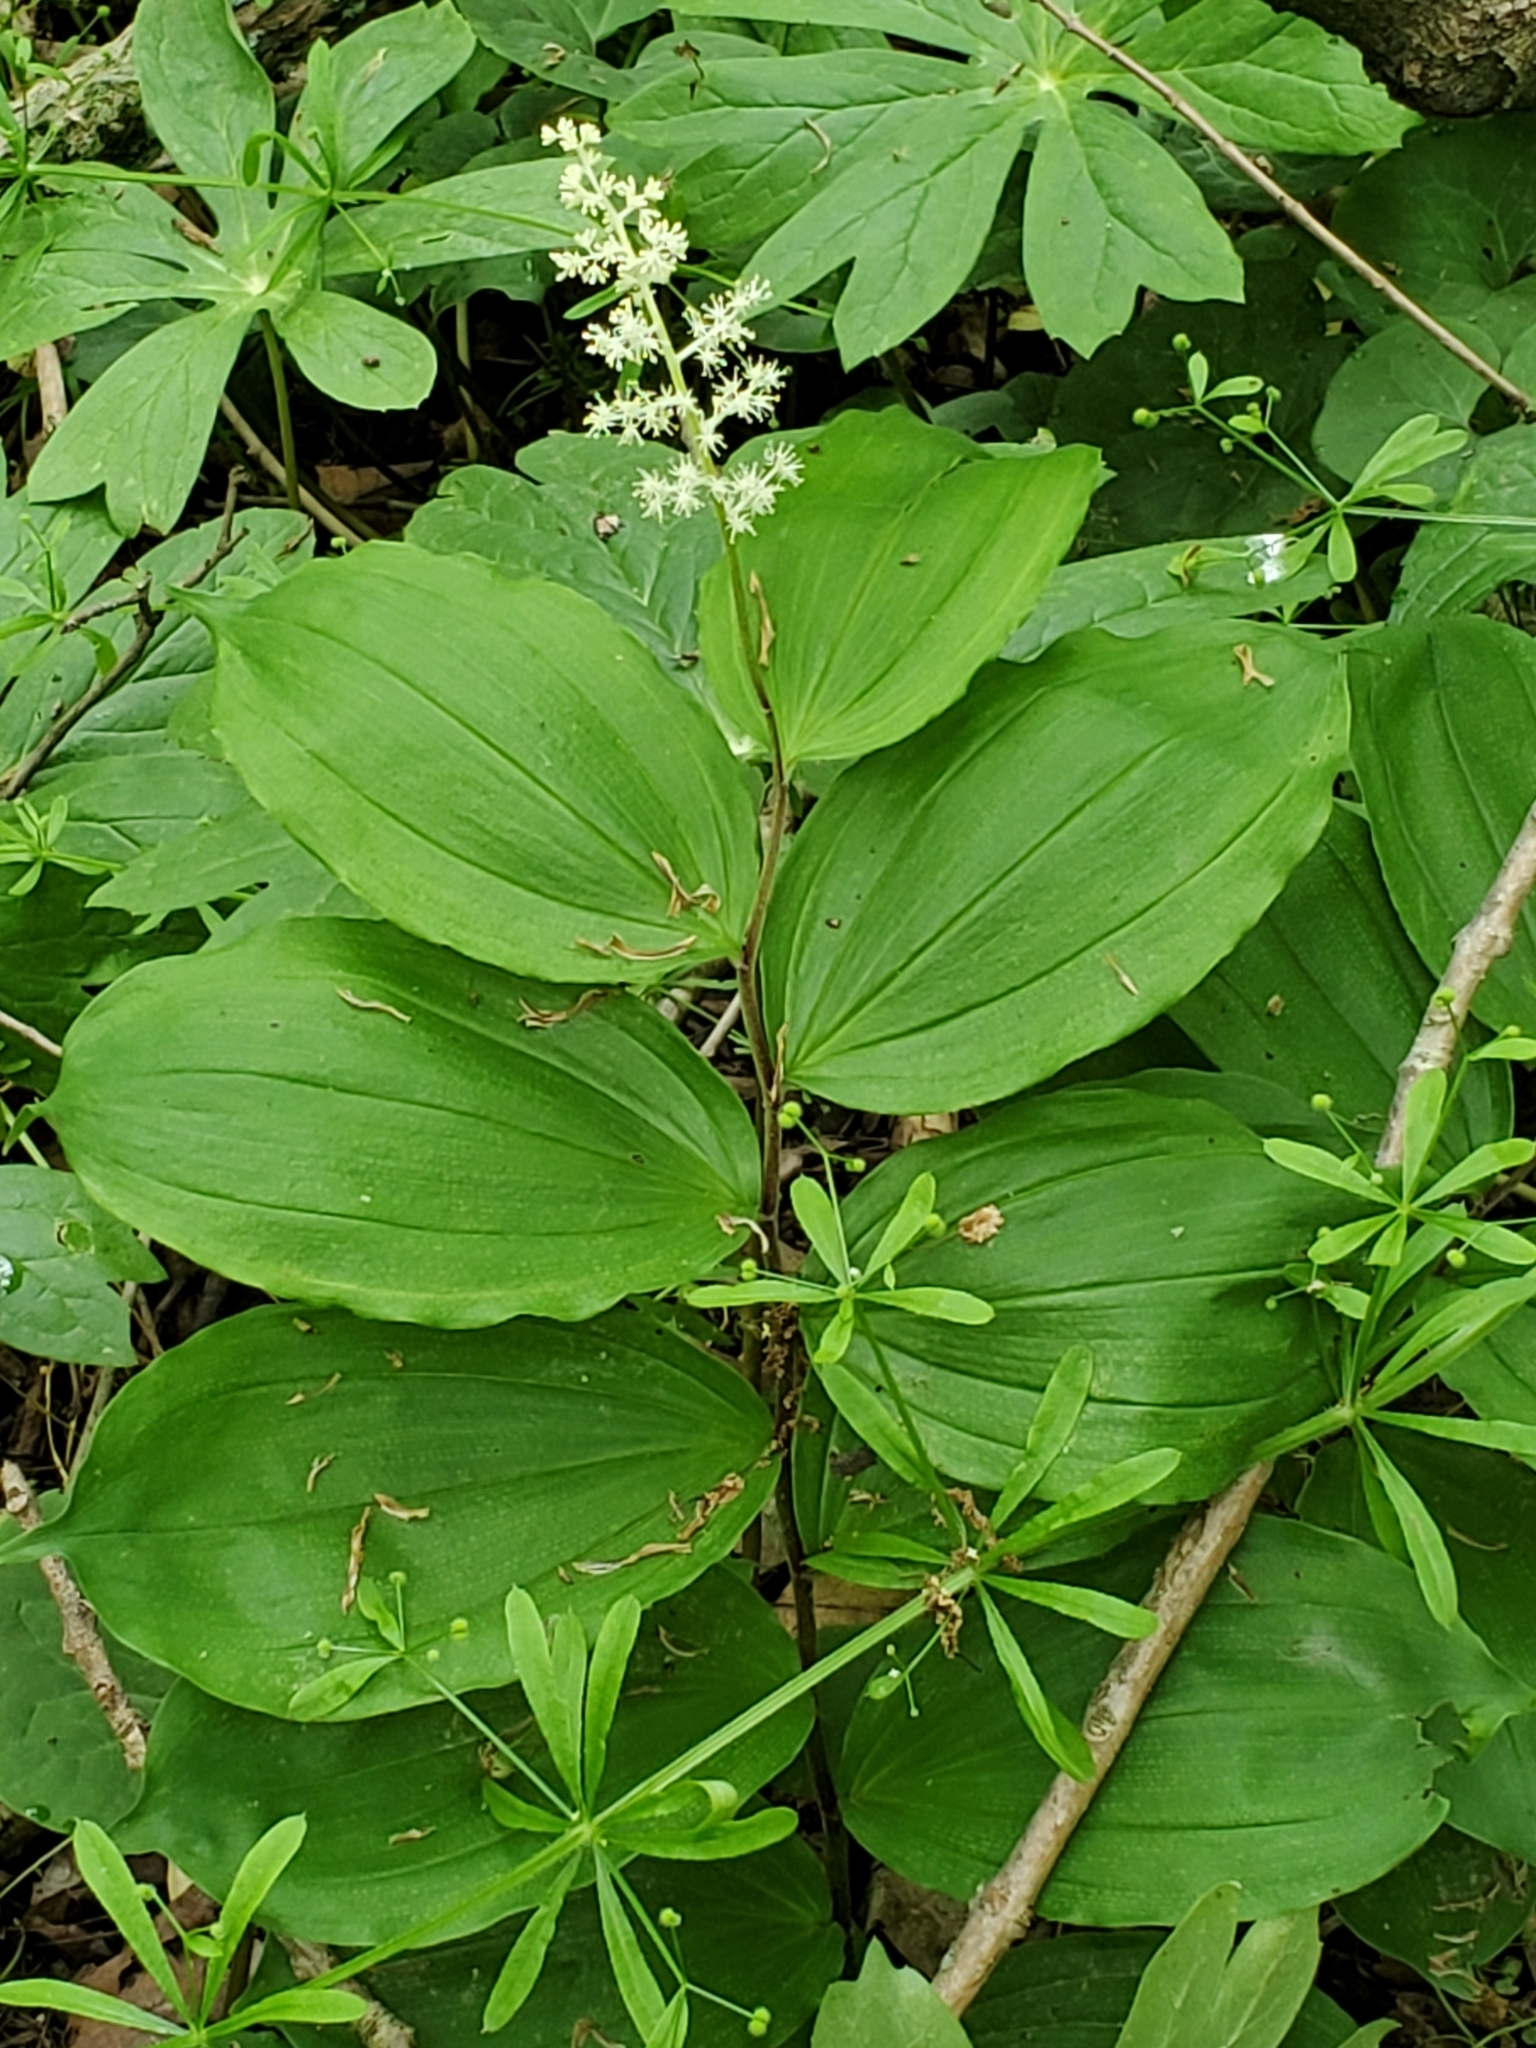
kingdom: Plantae
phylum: Tracheophyta
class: Liliopsida
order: Asparagales
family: Asparagaceae
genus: Maianthemum
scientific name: Maianthemum racemosum
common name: False spikenard
